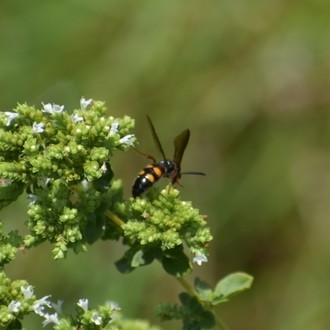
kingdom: Animalia
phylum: Arthropoda
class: Insecta
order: Hymenoptera
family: Scoliidae
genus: Scolia
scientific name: Scolia nobilitata
